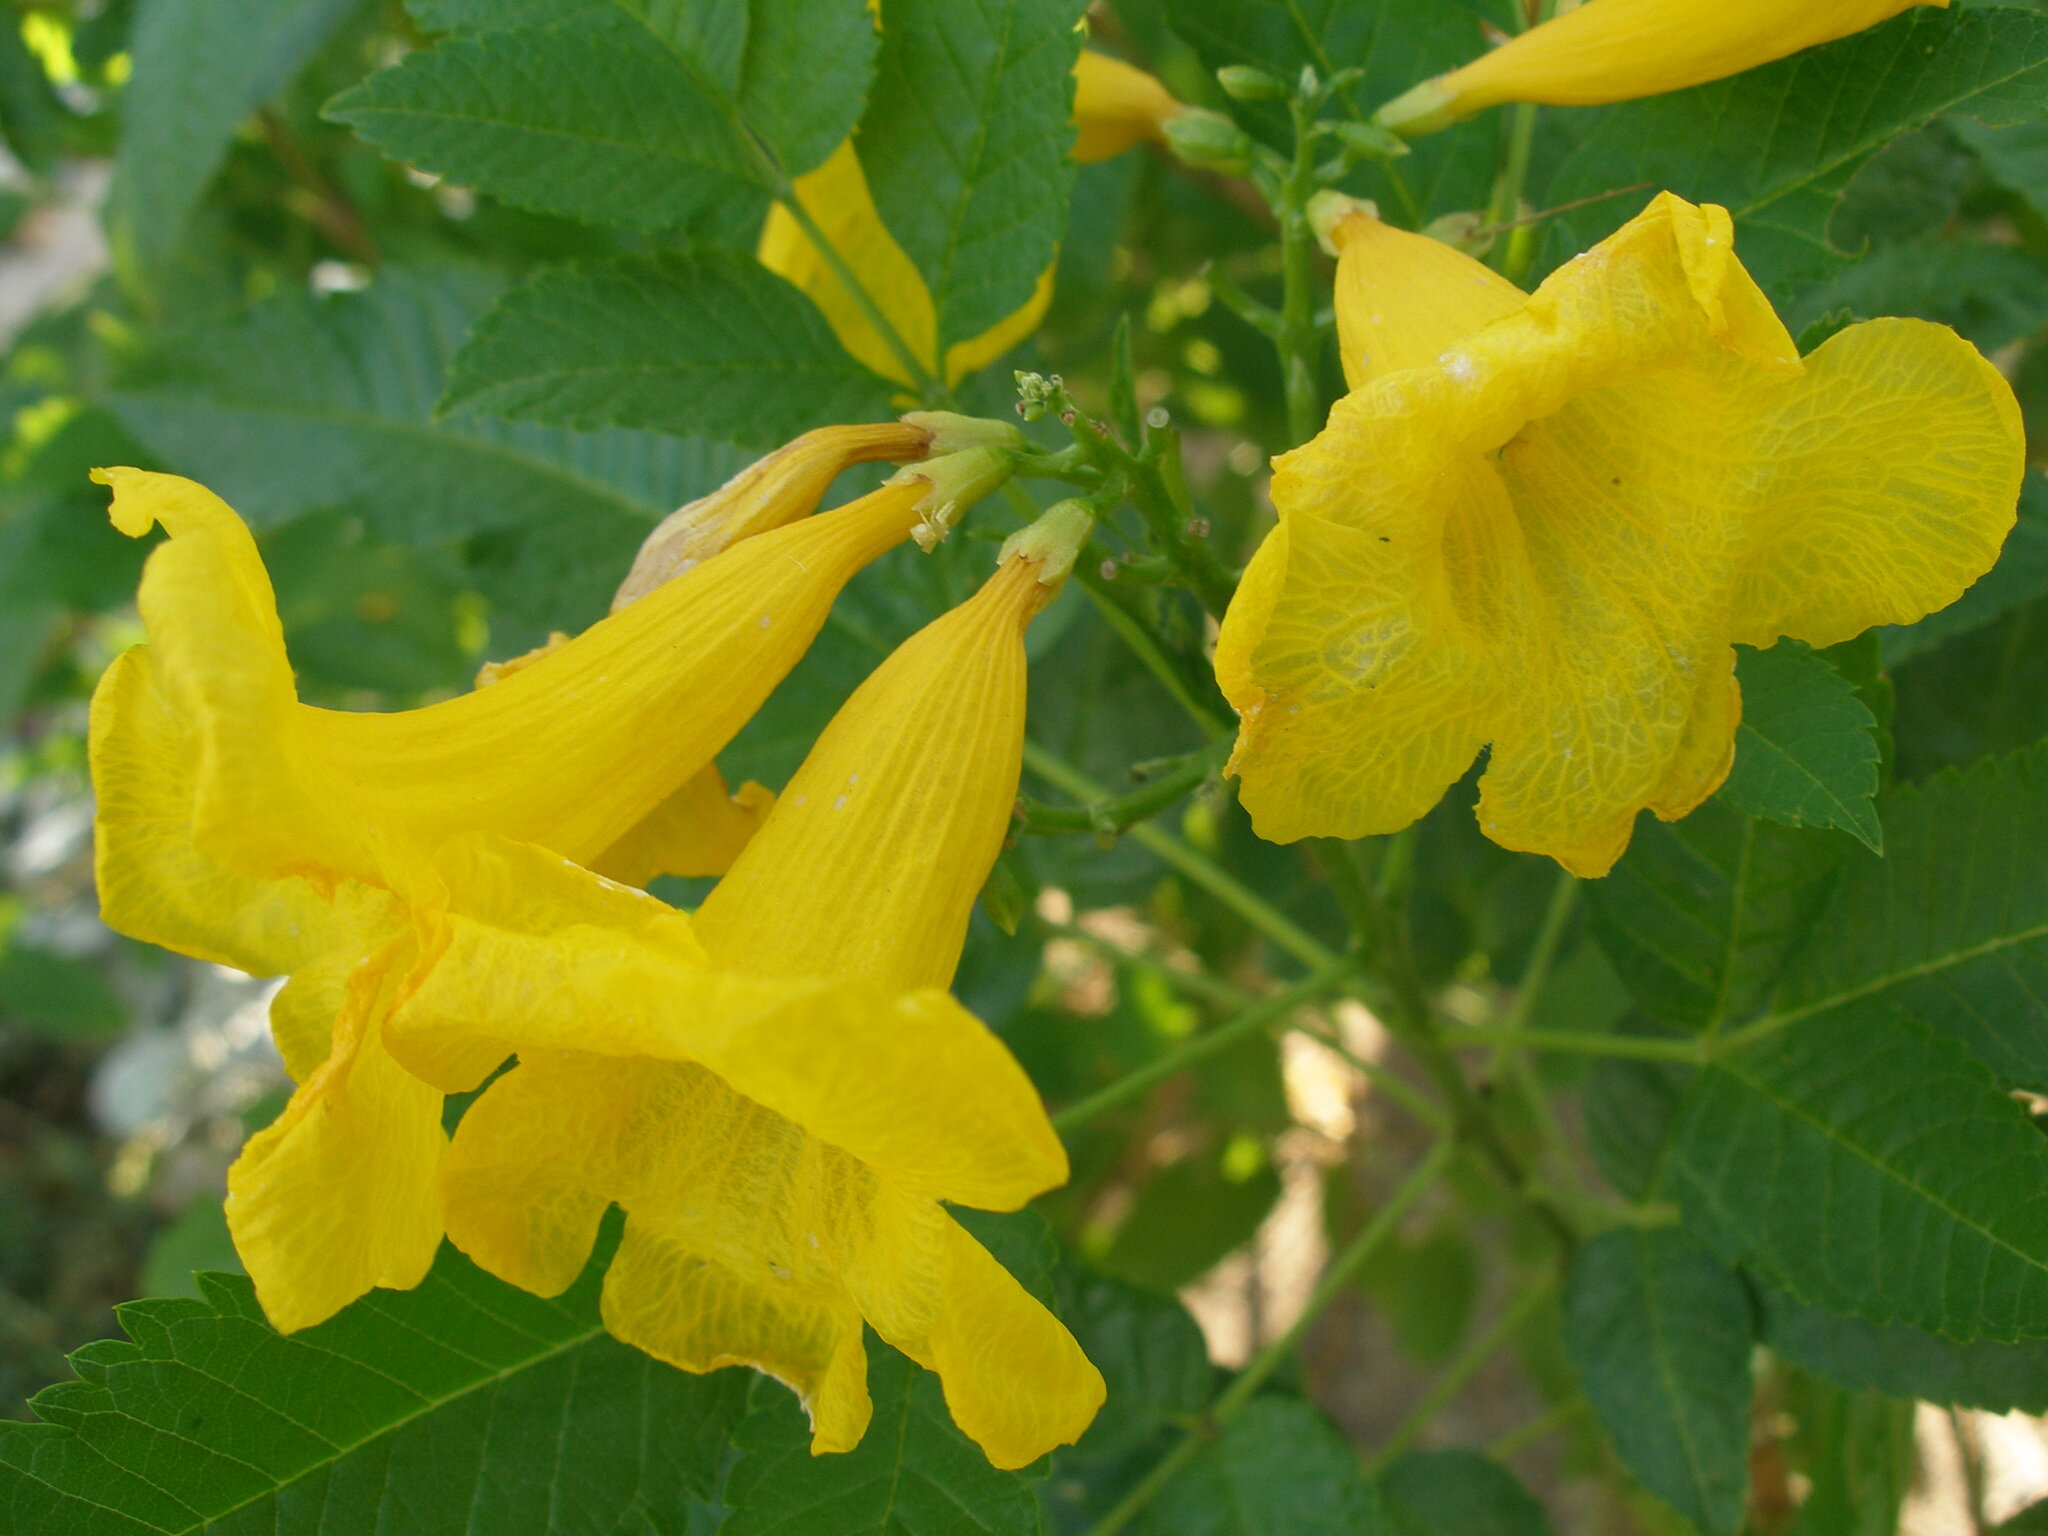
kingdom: Plantae
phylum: Tracheophyta
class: Magnoliopsida
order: Lamiales
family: Bignoniaceae
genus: Tecoma
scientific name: Tecoma stans
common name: Yellow trumpetbush
